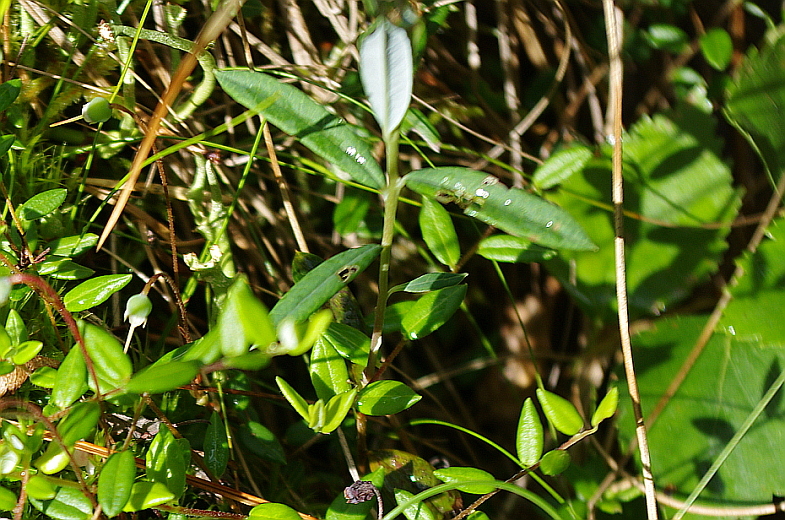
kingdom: Plantae
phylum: Tracheophyta
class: Magnoliopsida
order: Ericales
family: Ericaceae
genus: Andromeda
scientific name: Andromeda polifolia
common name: Bog-rosemary
